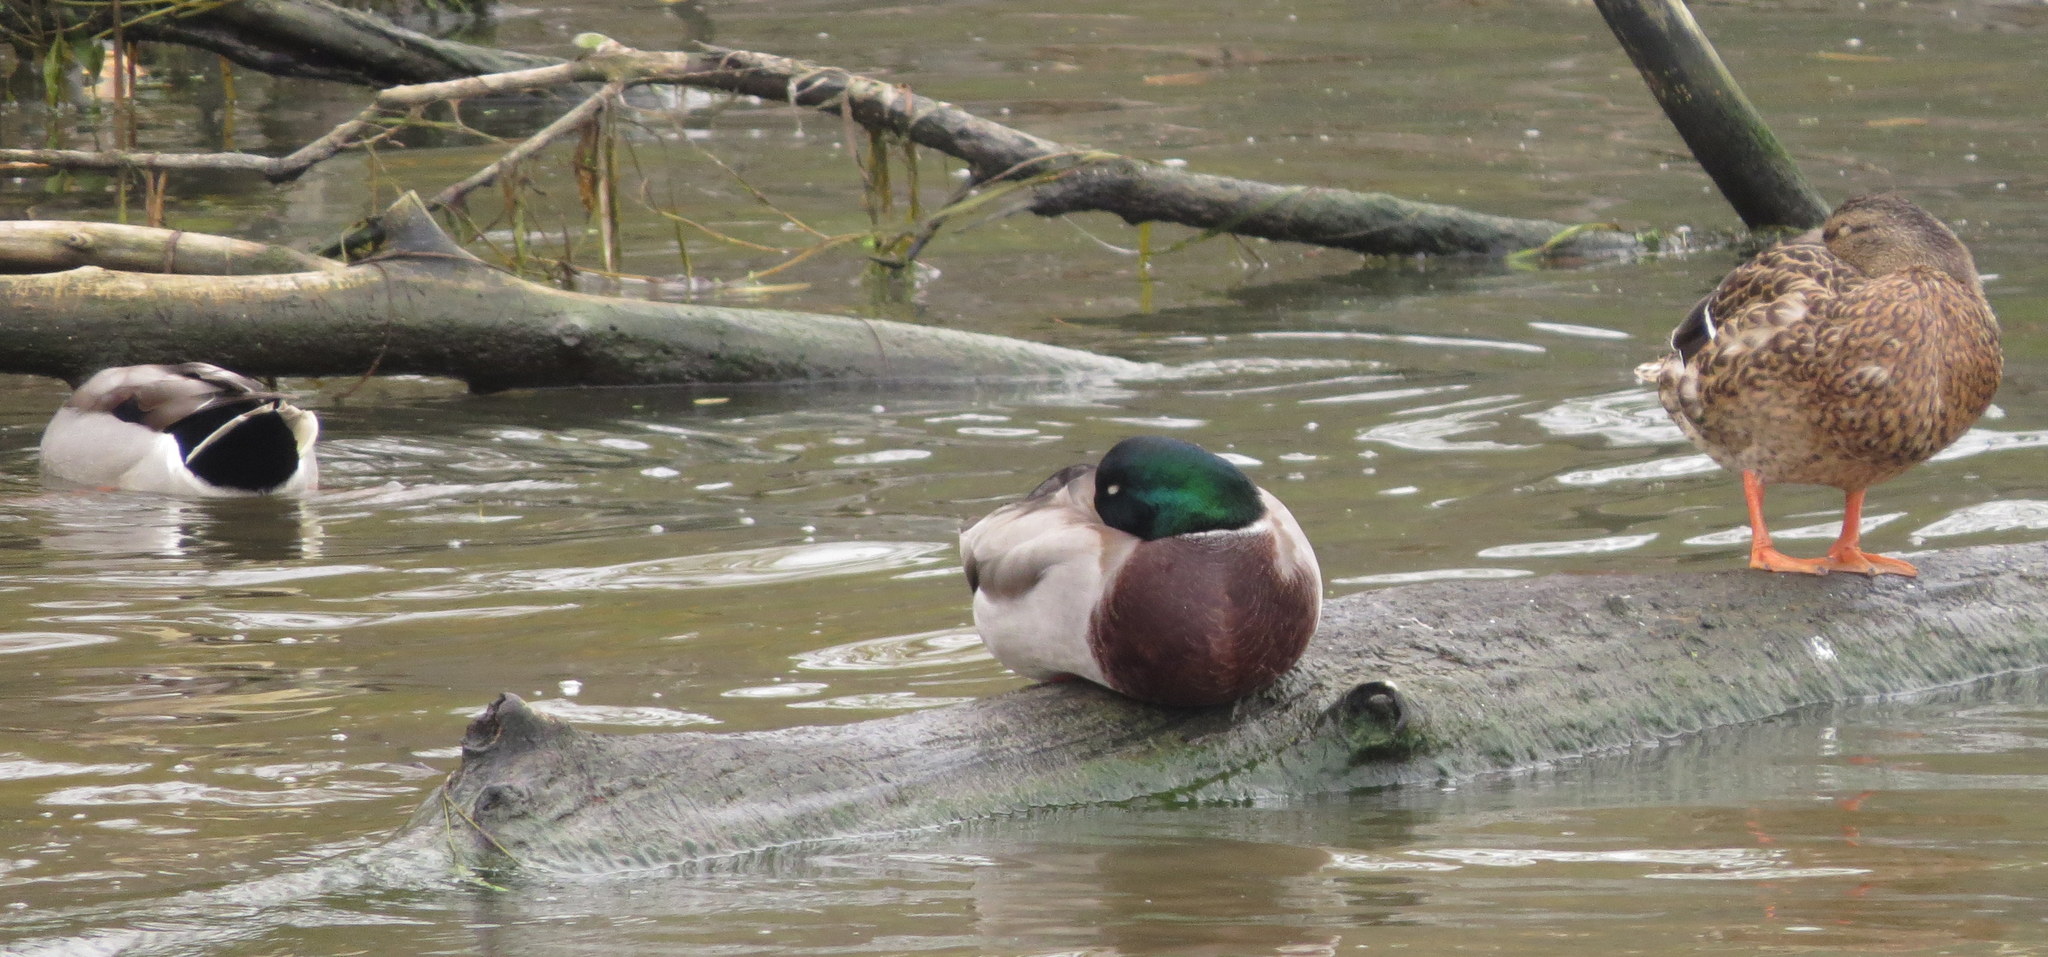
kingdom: Animalia
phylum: Chordata
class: Aves
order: Anseriformes
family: Anatidae
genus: Anas
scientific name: Anas platyrhynchos
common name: Mallard
